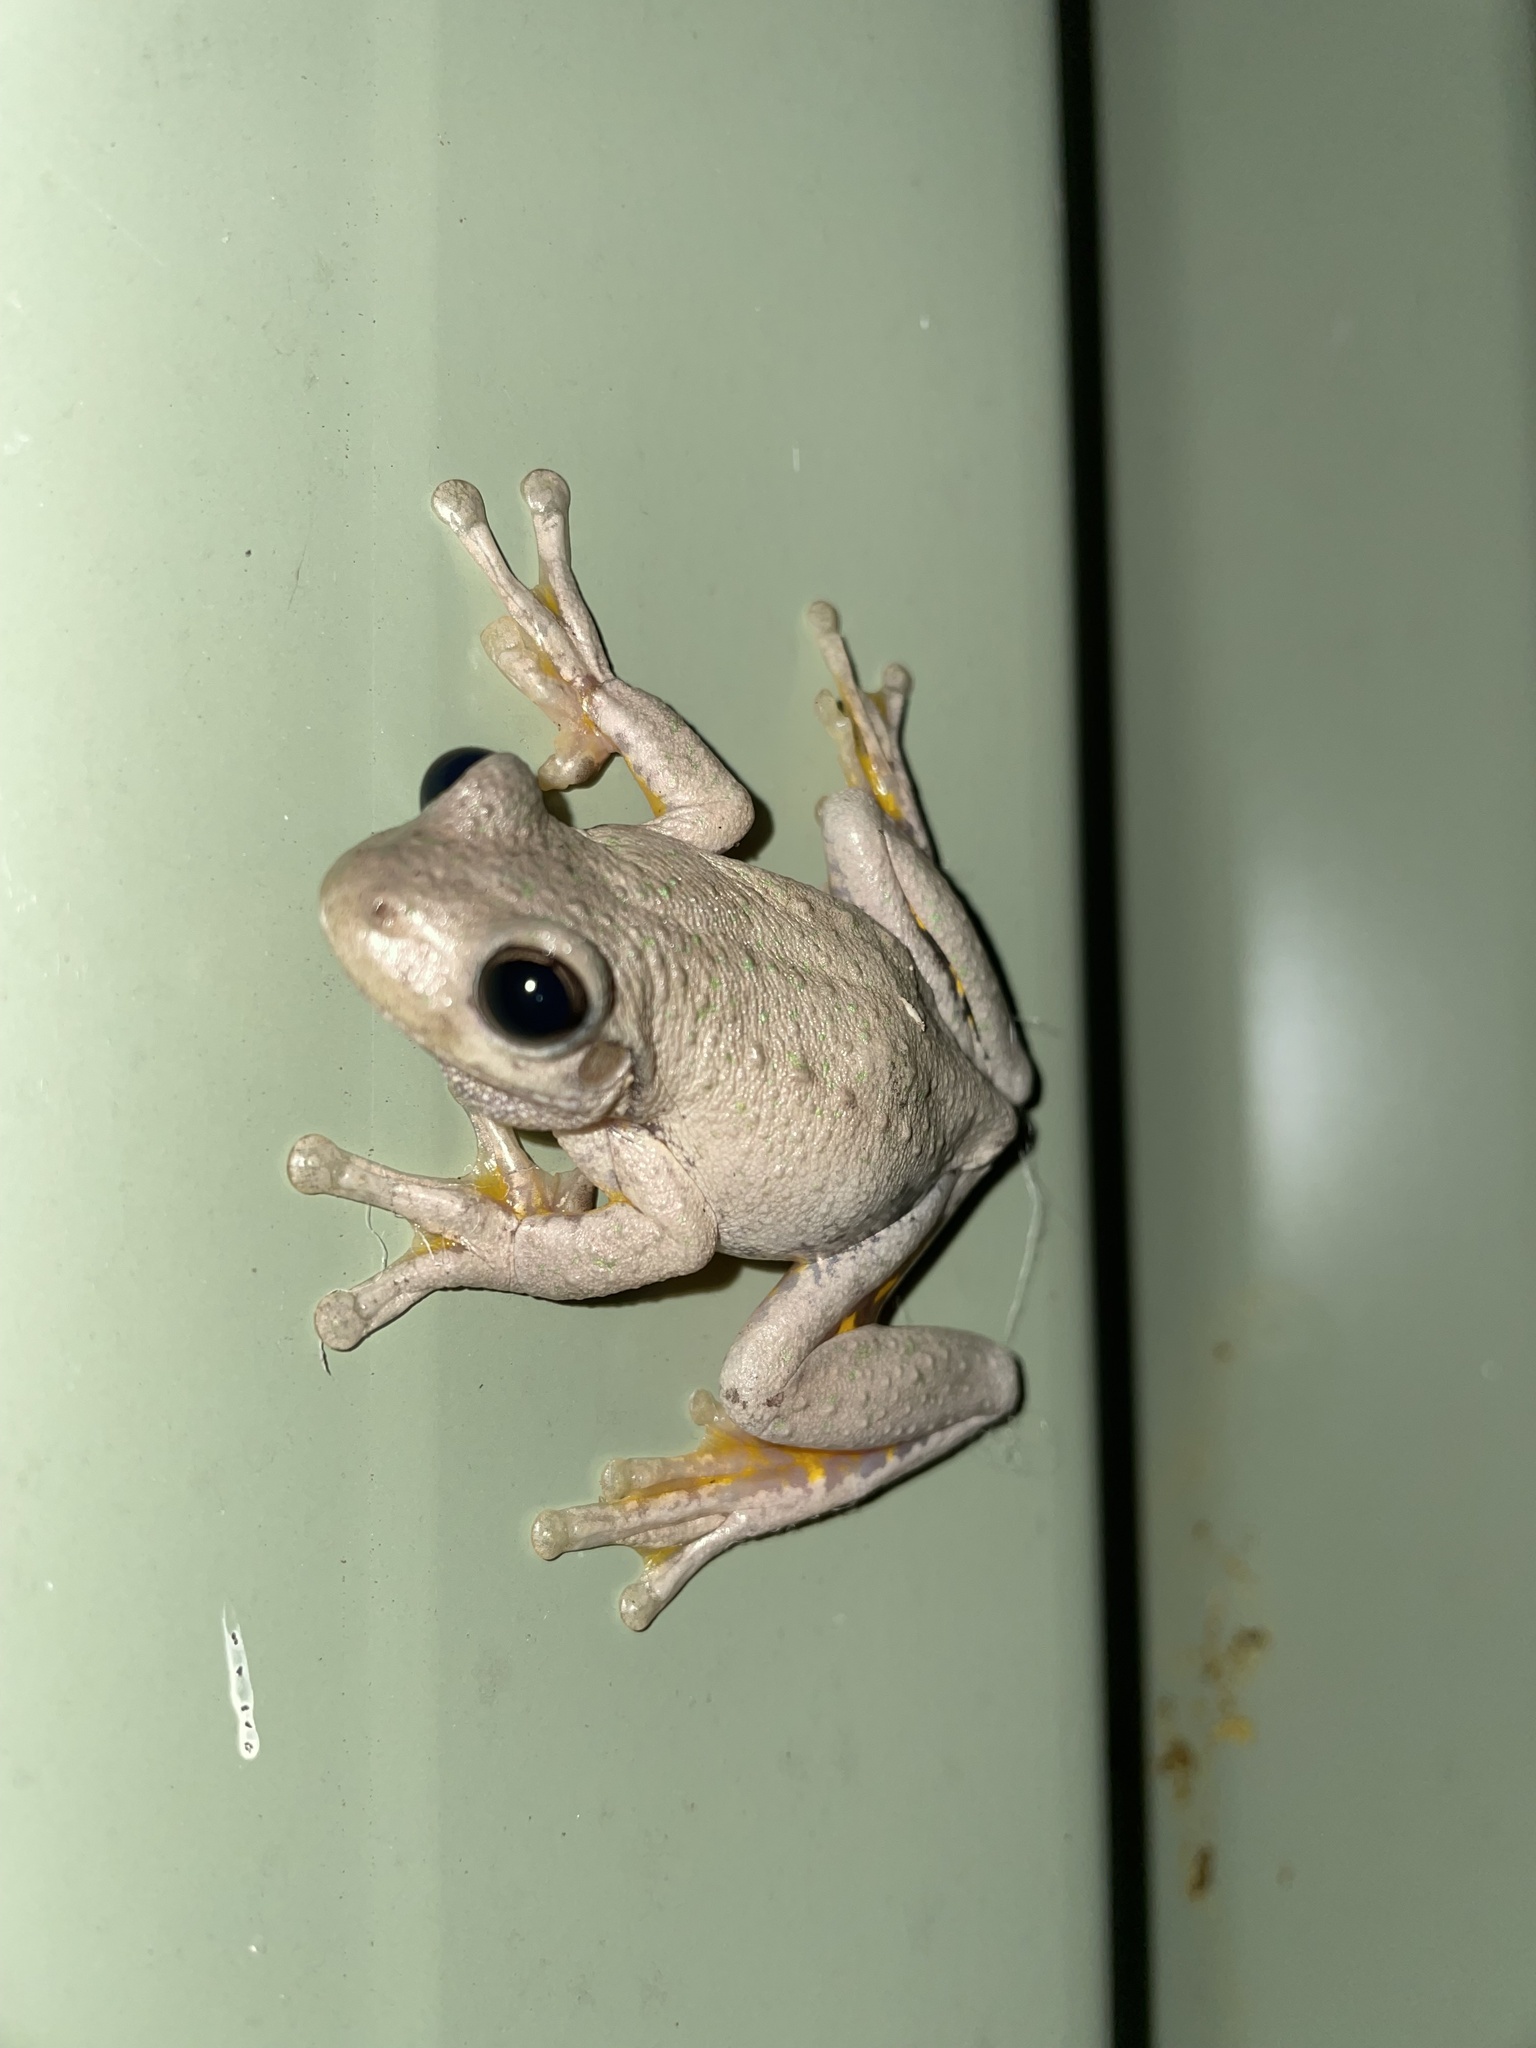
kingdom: Animalia
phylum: Chordata
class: Amphibia
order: Anura
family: Pelodryadidae
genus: Litoria
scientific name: Litoria peronii
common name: Emerald spotted treefrog
